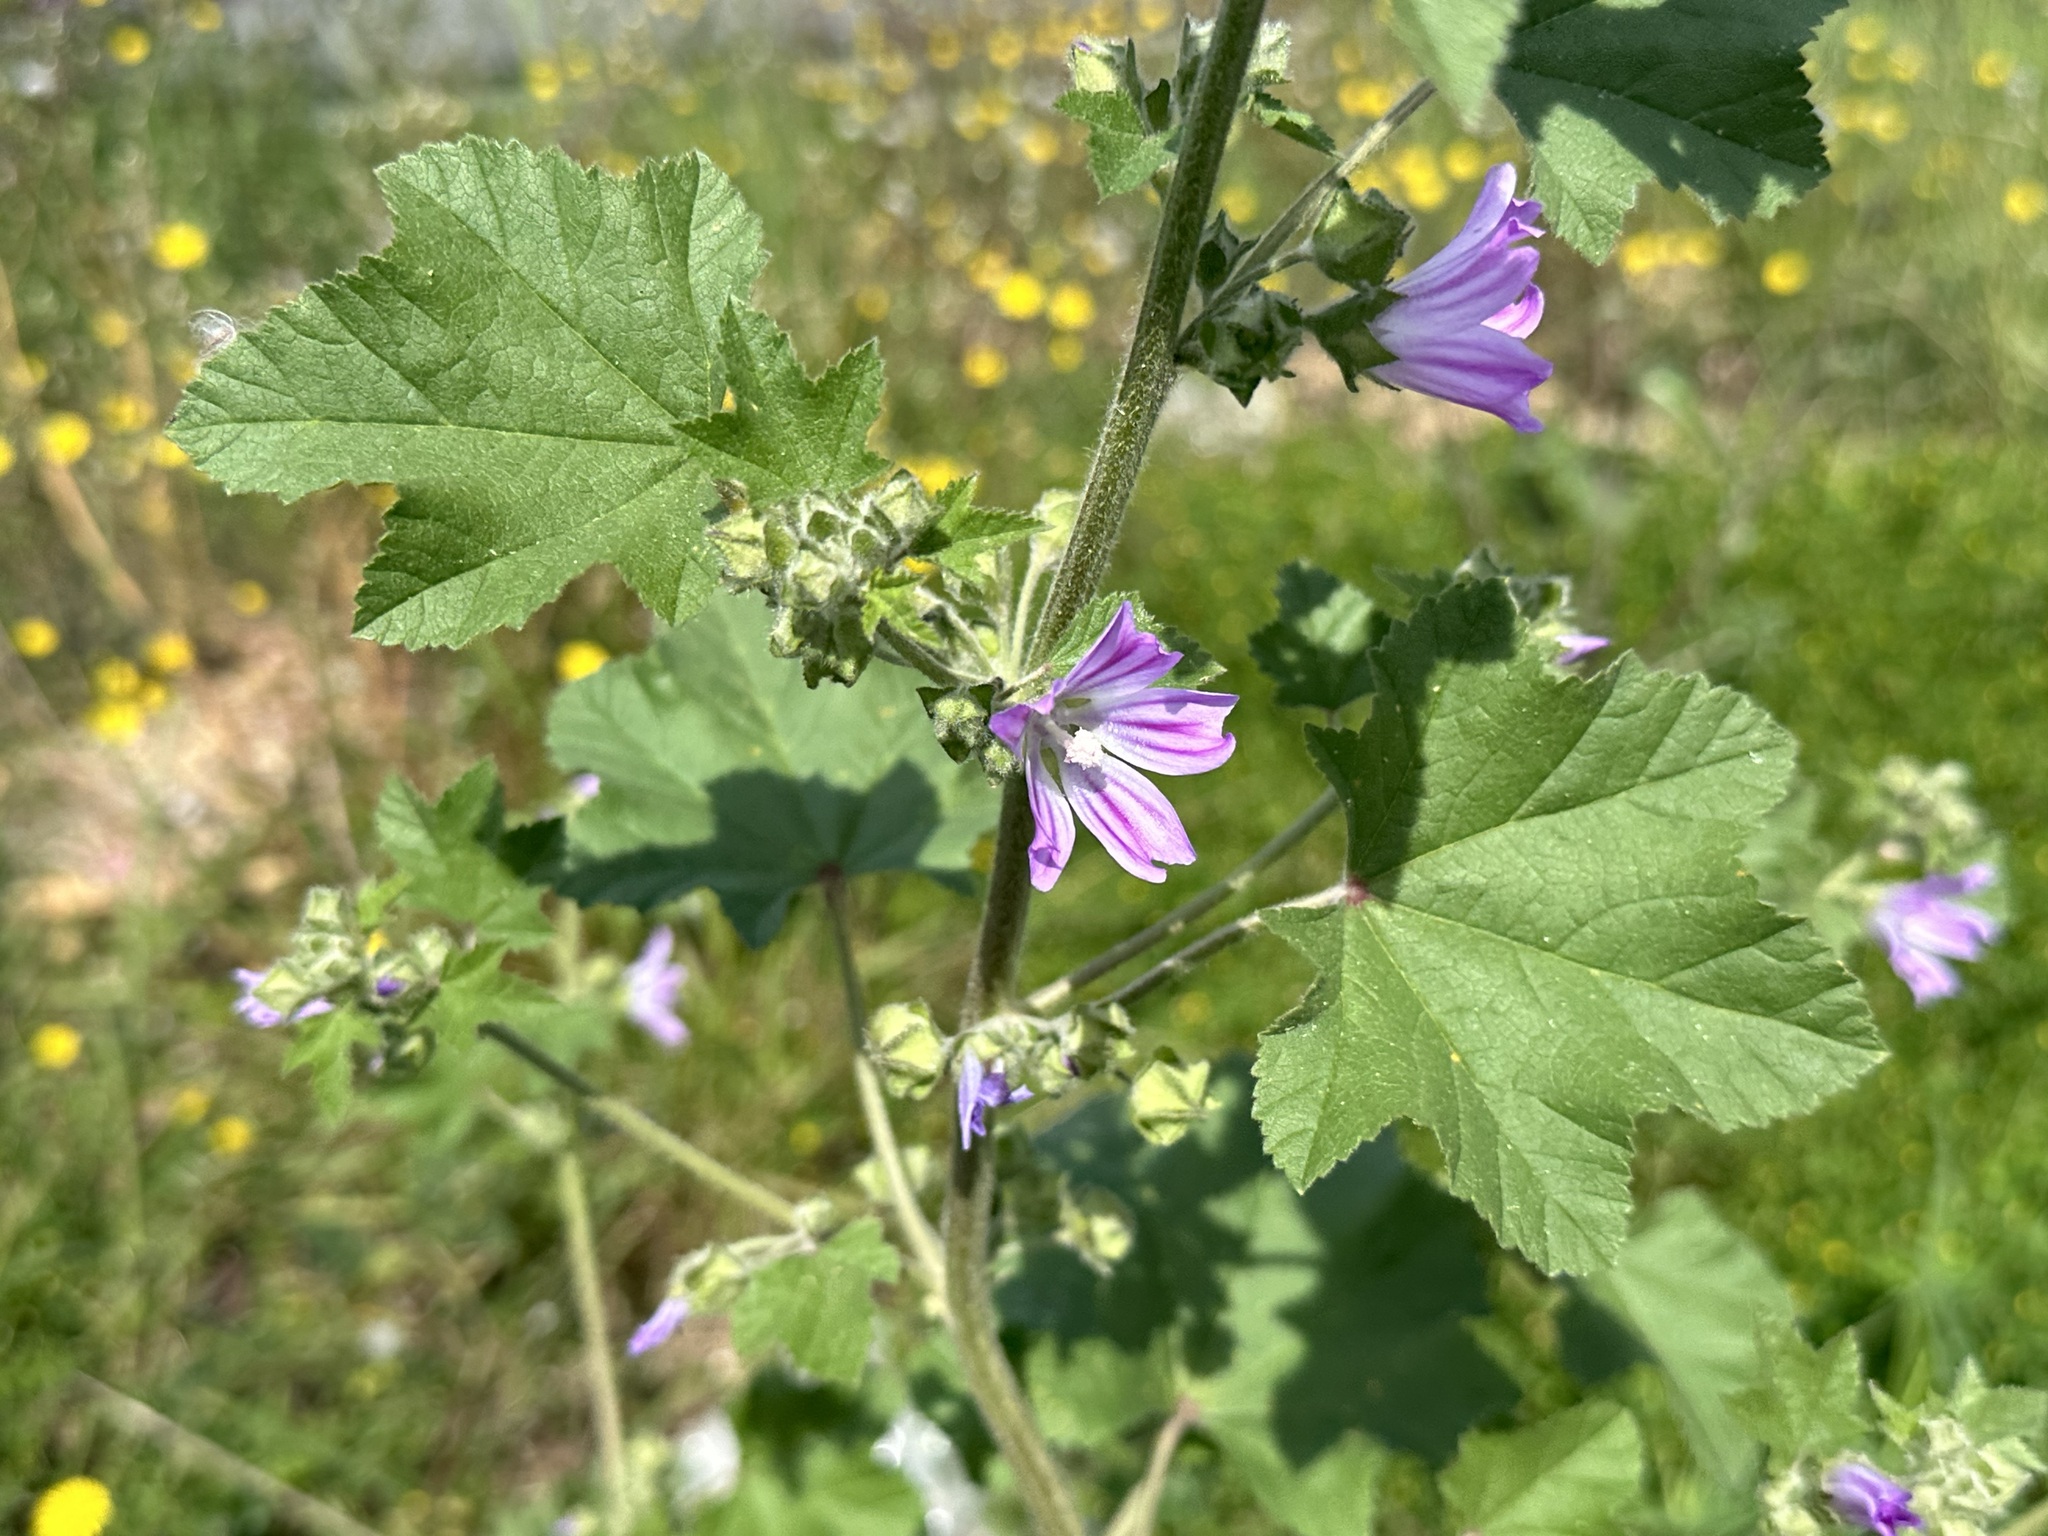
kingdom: Plantae
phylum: Tracheophyta
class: Magnoliopsida
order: Malvales
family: Malvaceae
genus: Malva
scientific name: Malva multiflora
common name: Cheeseweed
